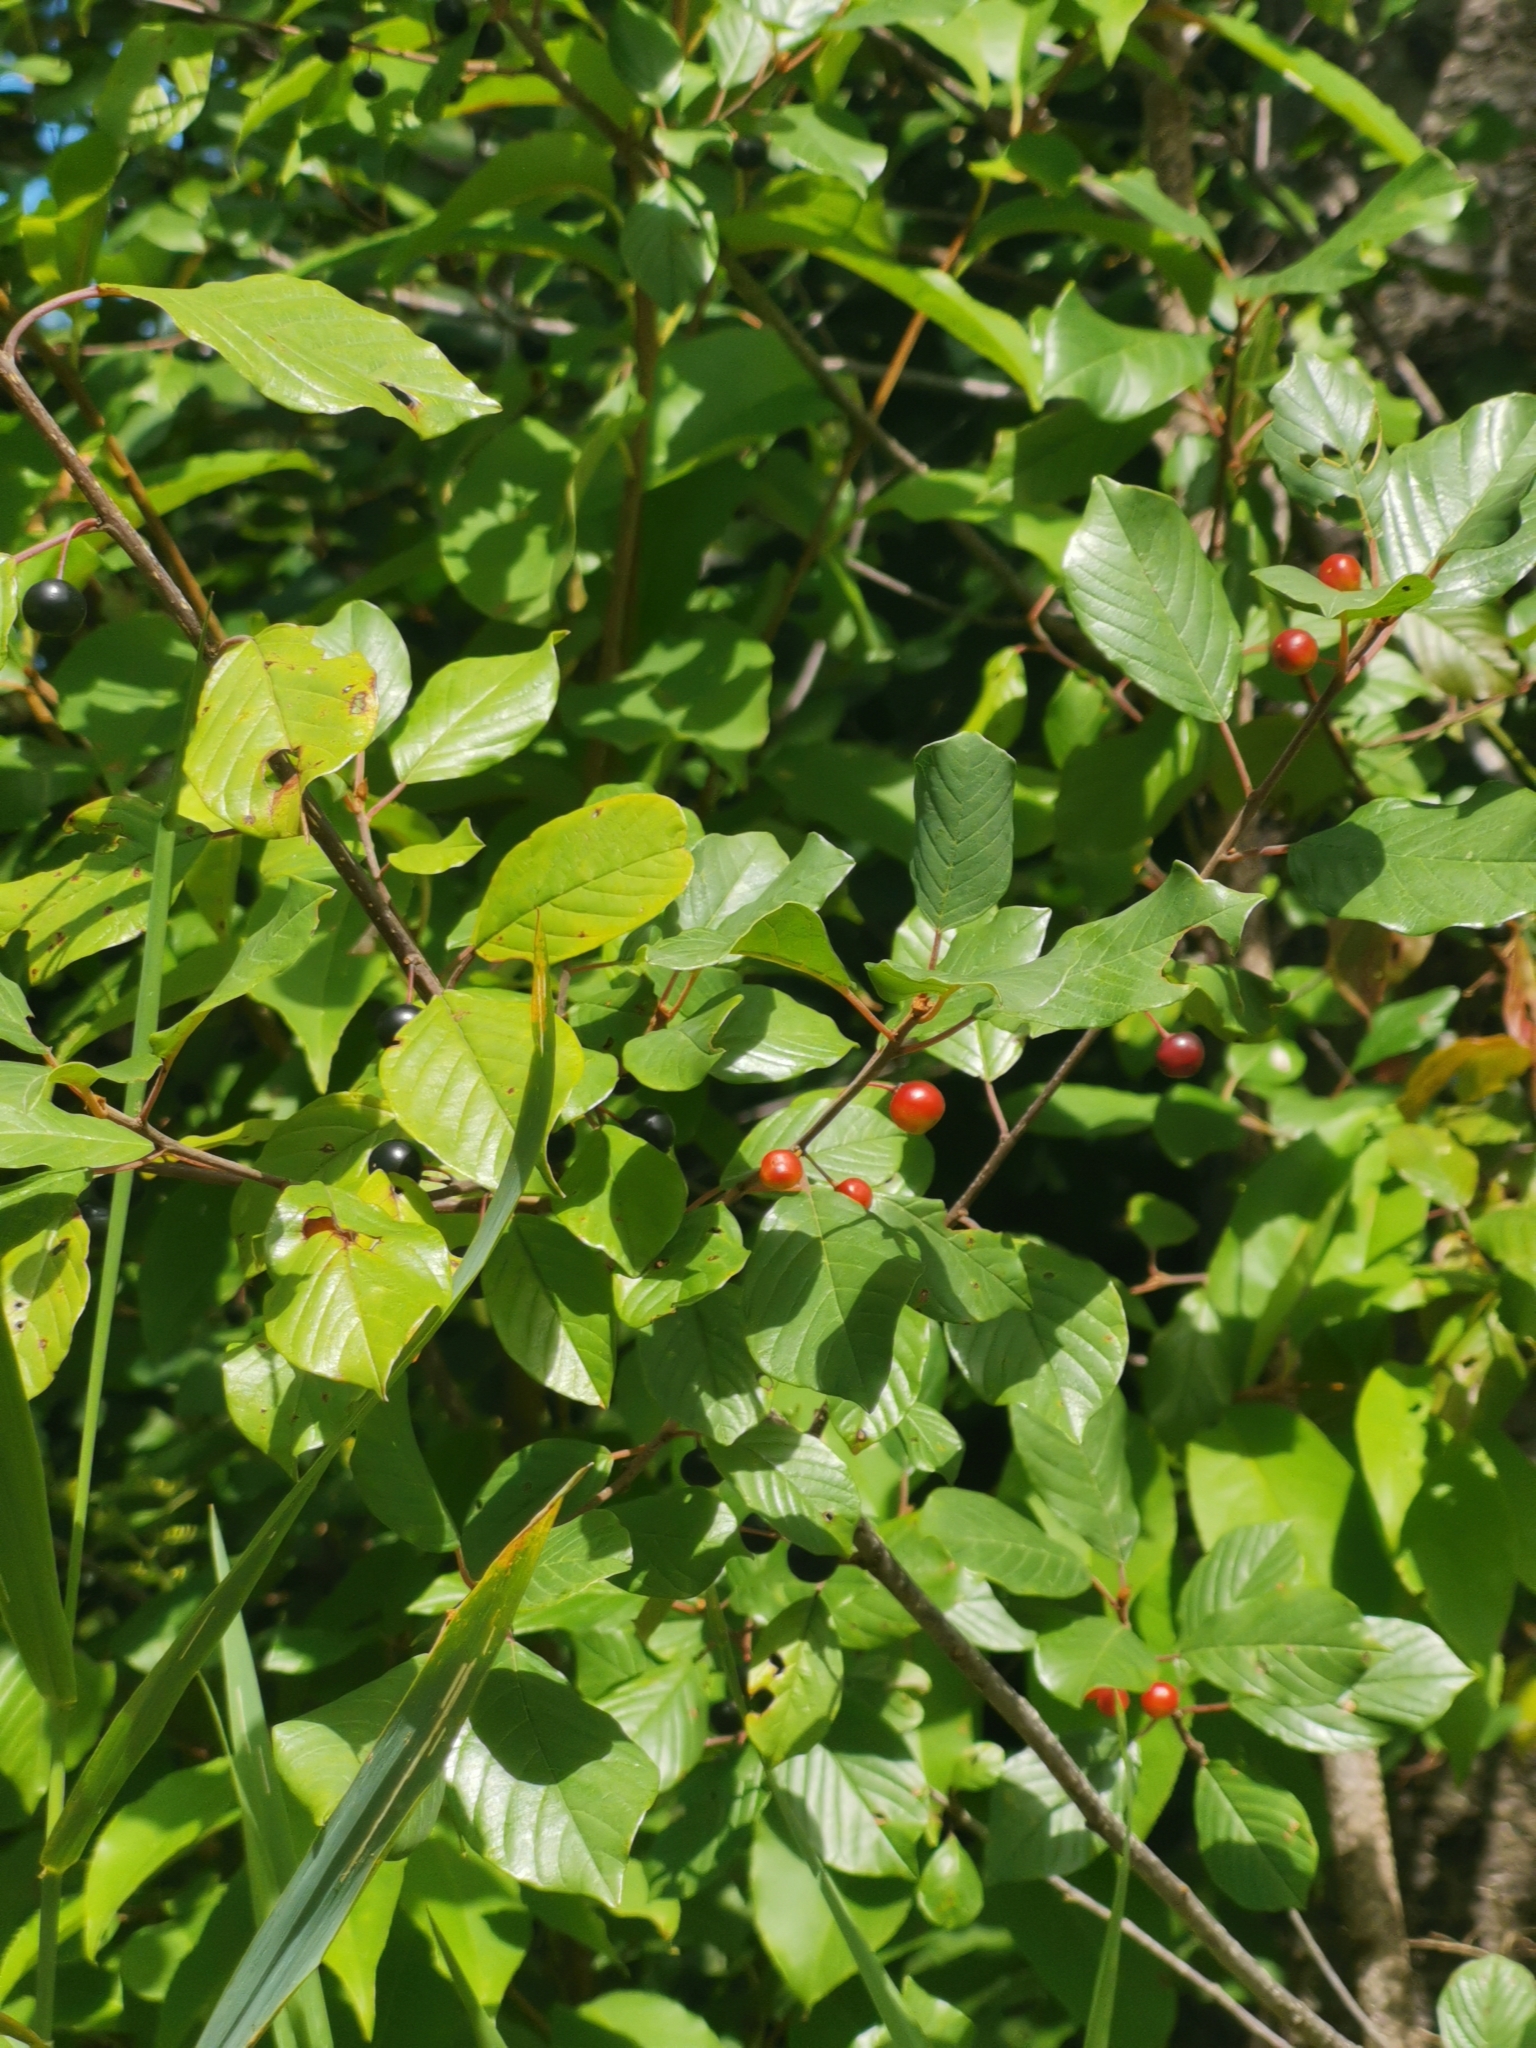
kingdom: Plantae
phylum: Tracheophyta
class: Magnoliopsida
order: Rosales
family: Rhamnaceae
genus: Frangula
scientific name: Frangula alnus
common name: Alder buckthorn
